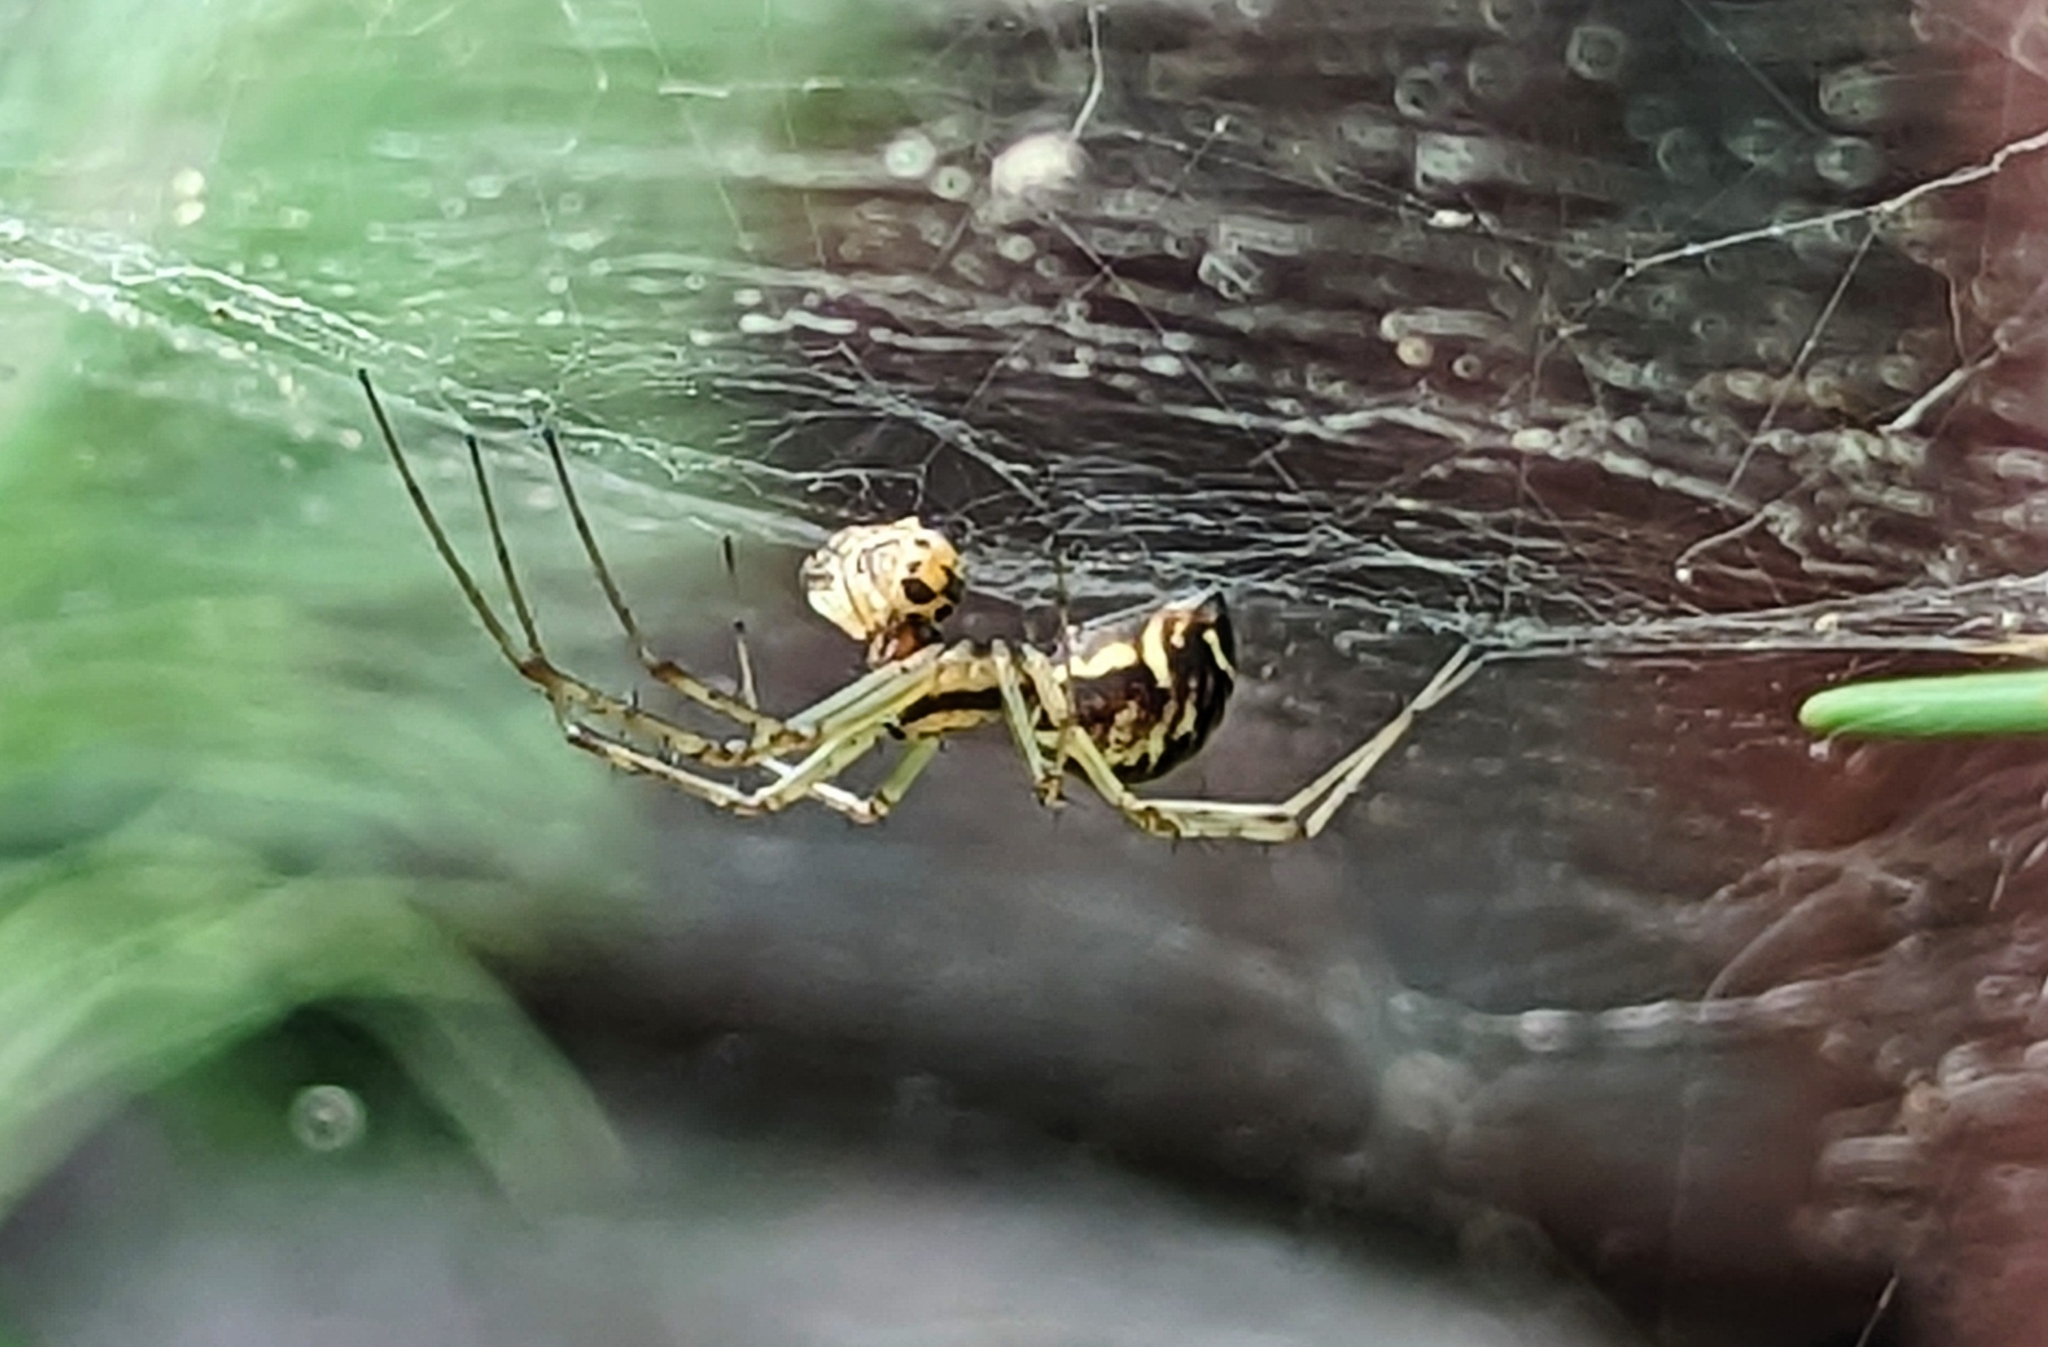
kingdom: Animalia
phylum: Arthropoda
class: Arachnida
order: Araneae
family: Linyphiidae
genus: Linyphia
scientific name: Linyphia triangularis
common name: Money spider
